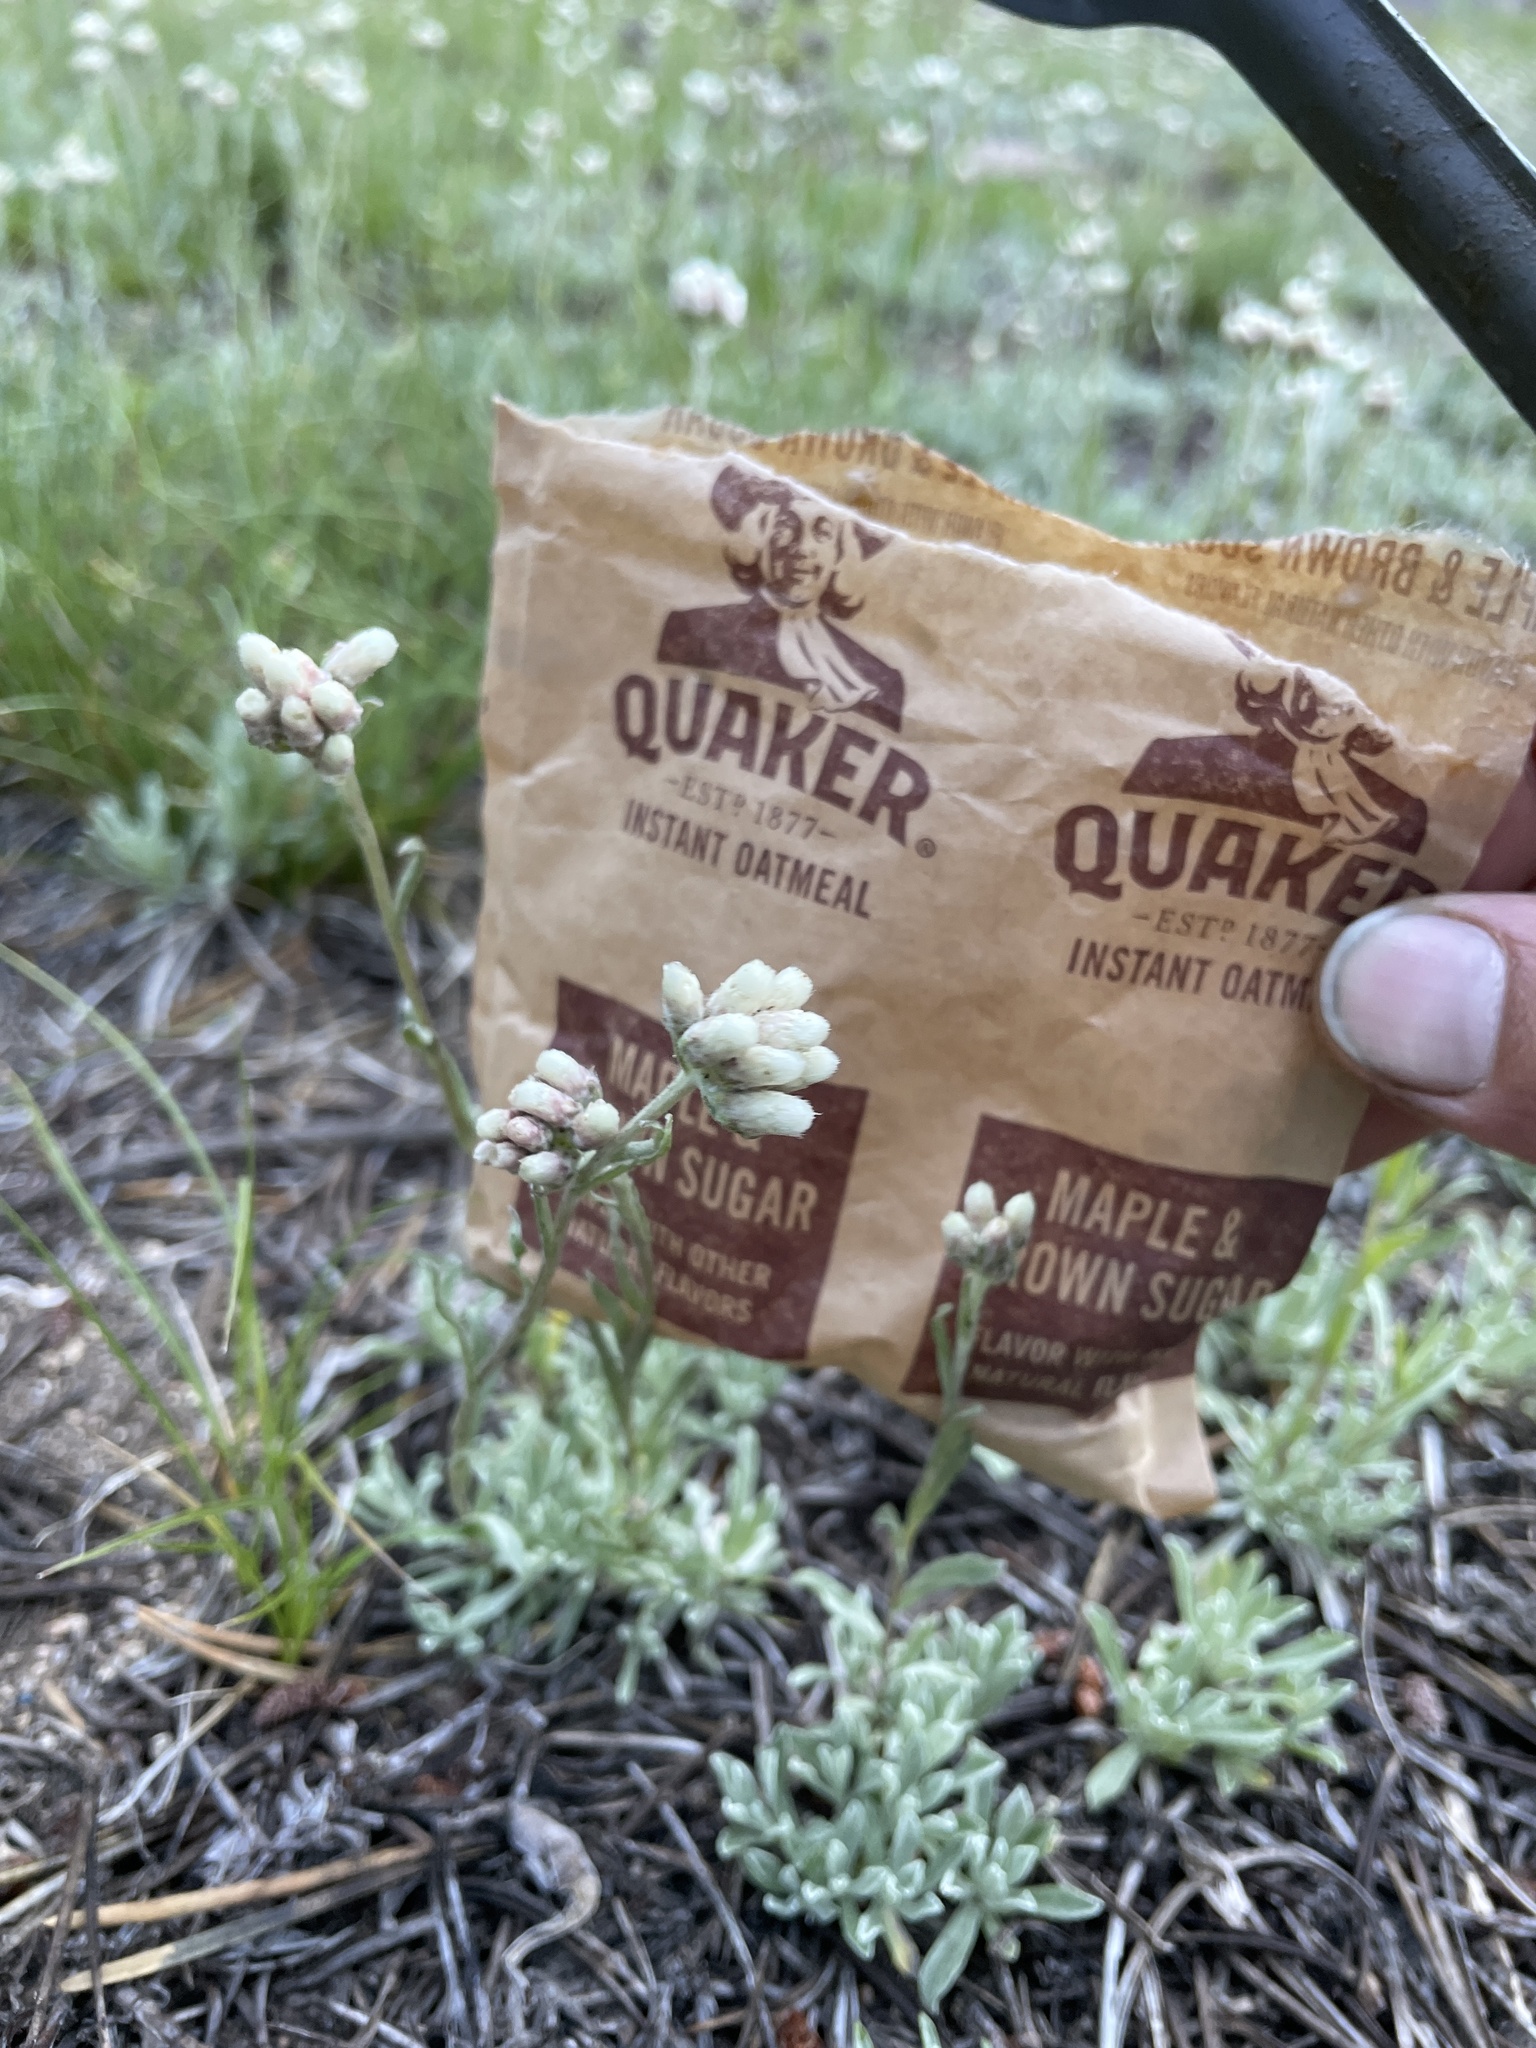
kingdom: Plantae
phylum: Tracheophyta
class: Magnoliopsida
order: Asterales
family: Asteraceae
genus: Antennaria
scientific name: Antennaria rosea
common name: Rosy pussytoes
